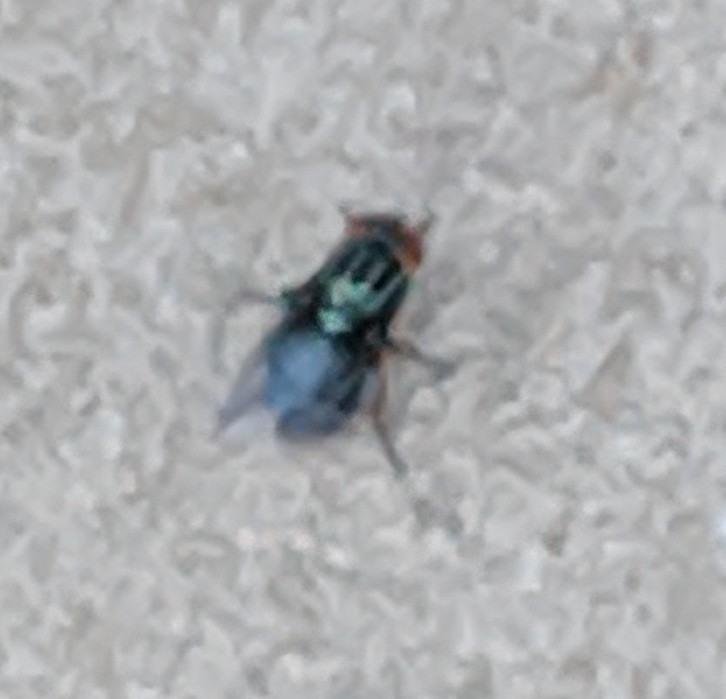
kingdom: Animalia
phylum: Arthropoda
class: Insecta
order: Diptera
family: Calliphoridae
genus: Cochliomyia
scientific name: Cochliomyia macellaria
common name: Secondary screwworm
